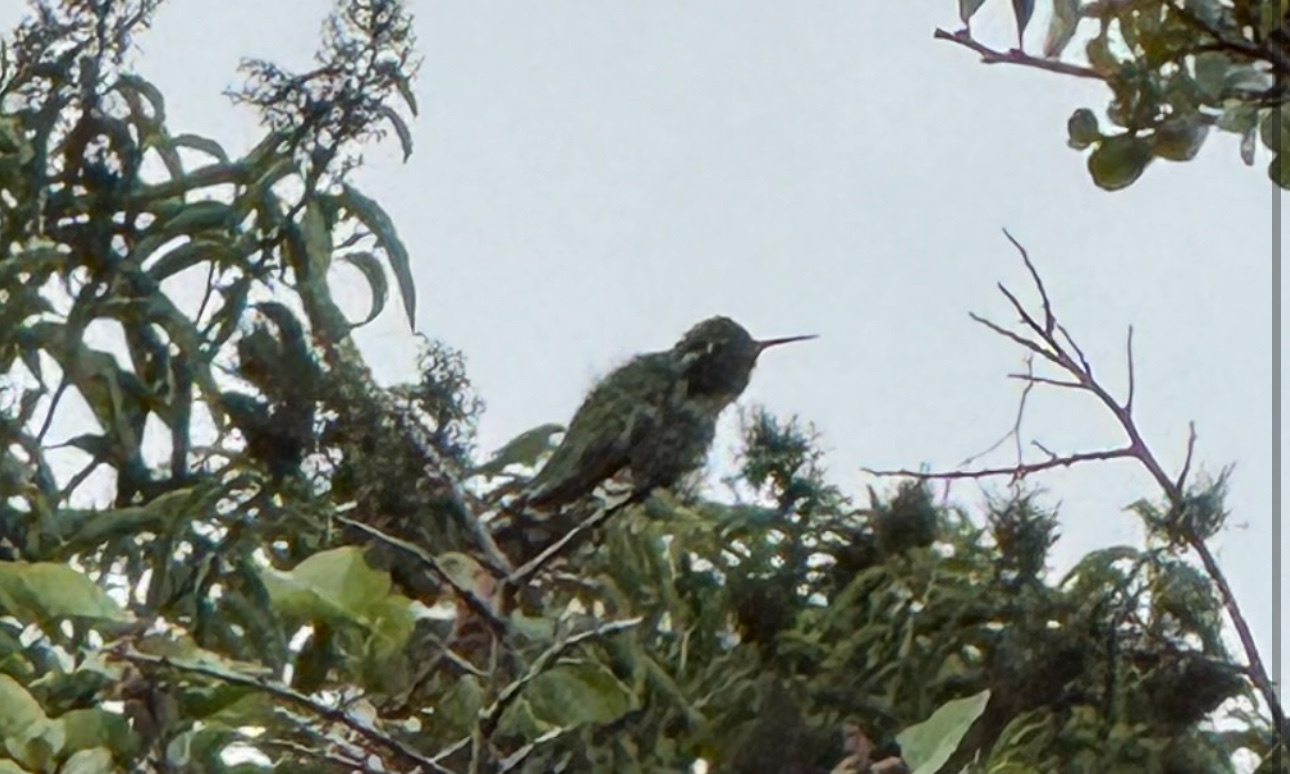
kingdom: Animalia
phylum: Chordata
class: Aves
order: Apodiformes
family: Trochilidae
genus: Calypte
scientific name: Calypte anna
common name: Anna's hummingbird
